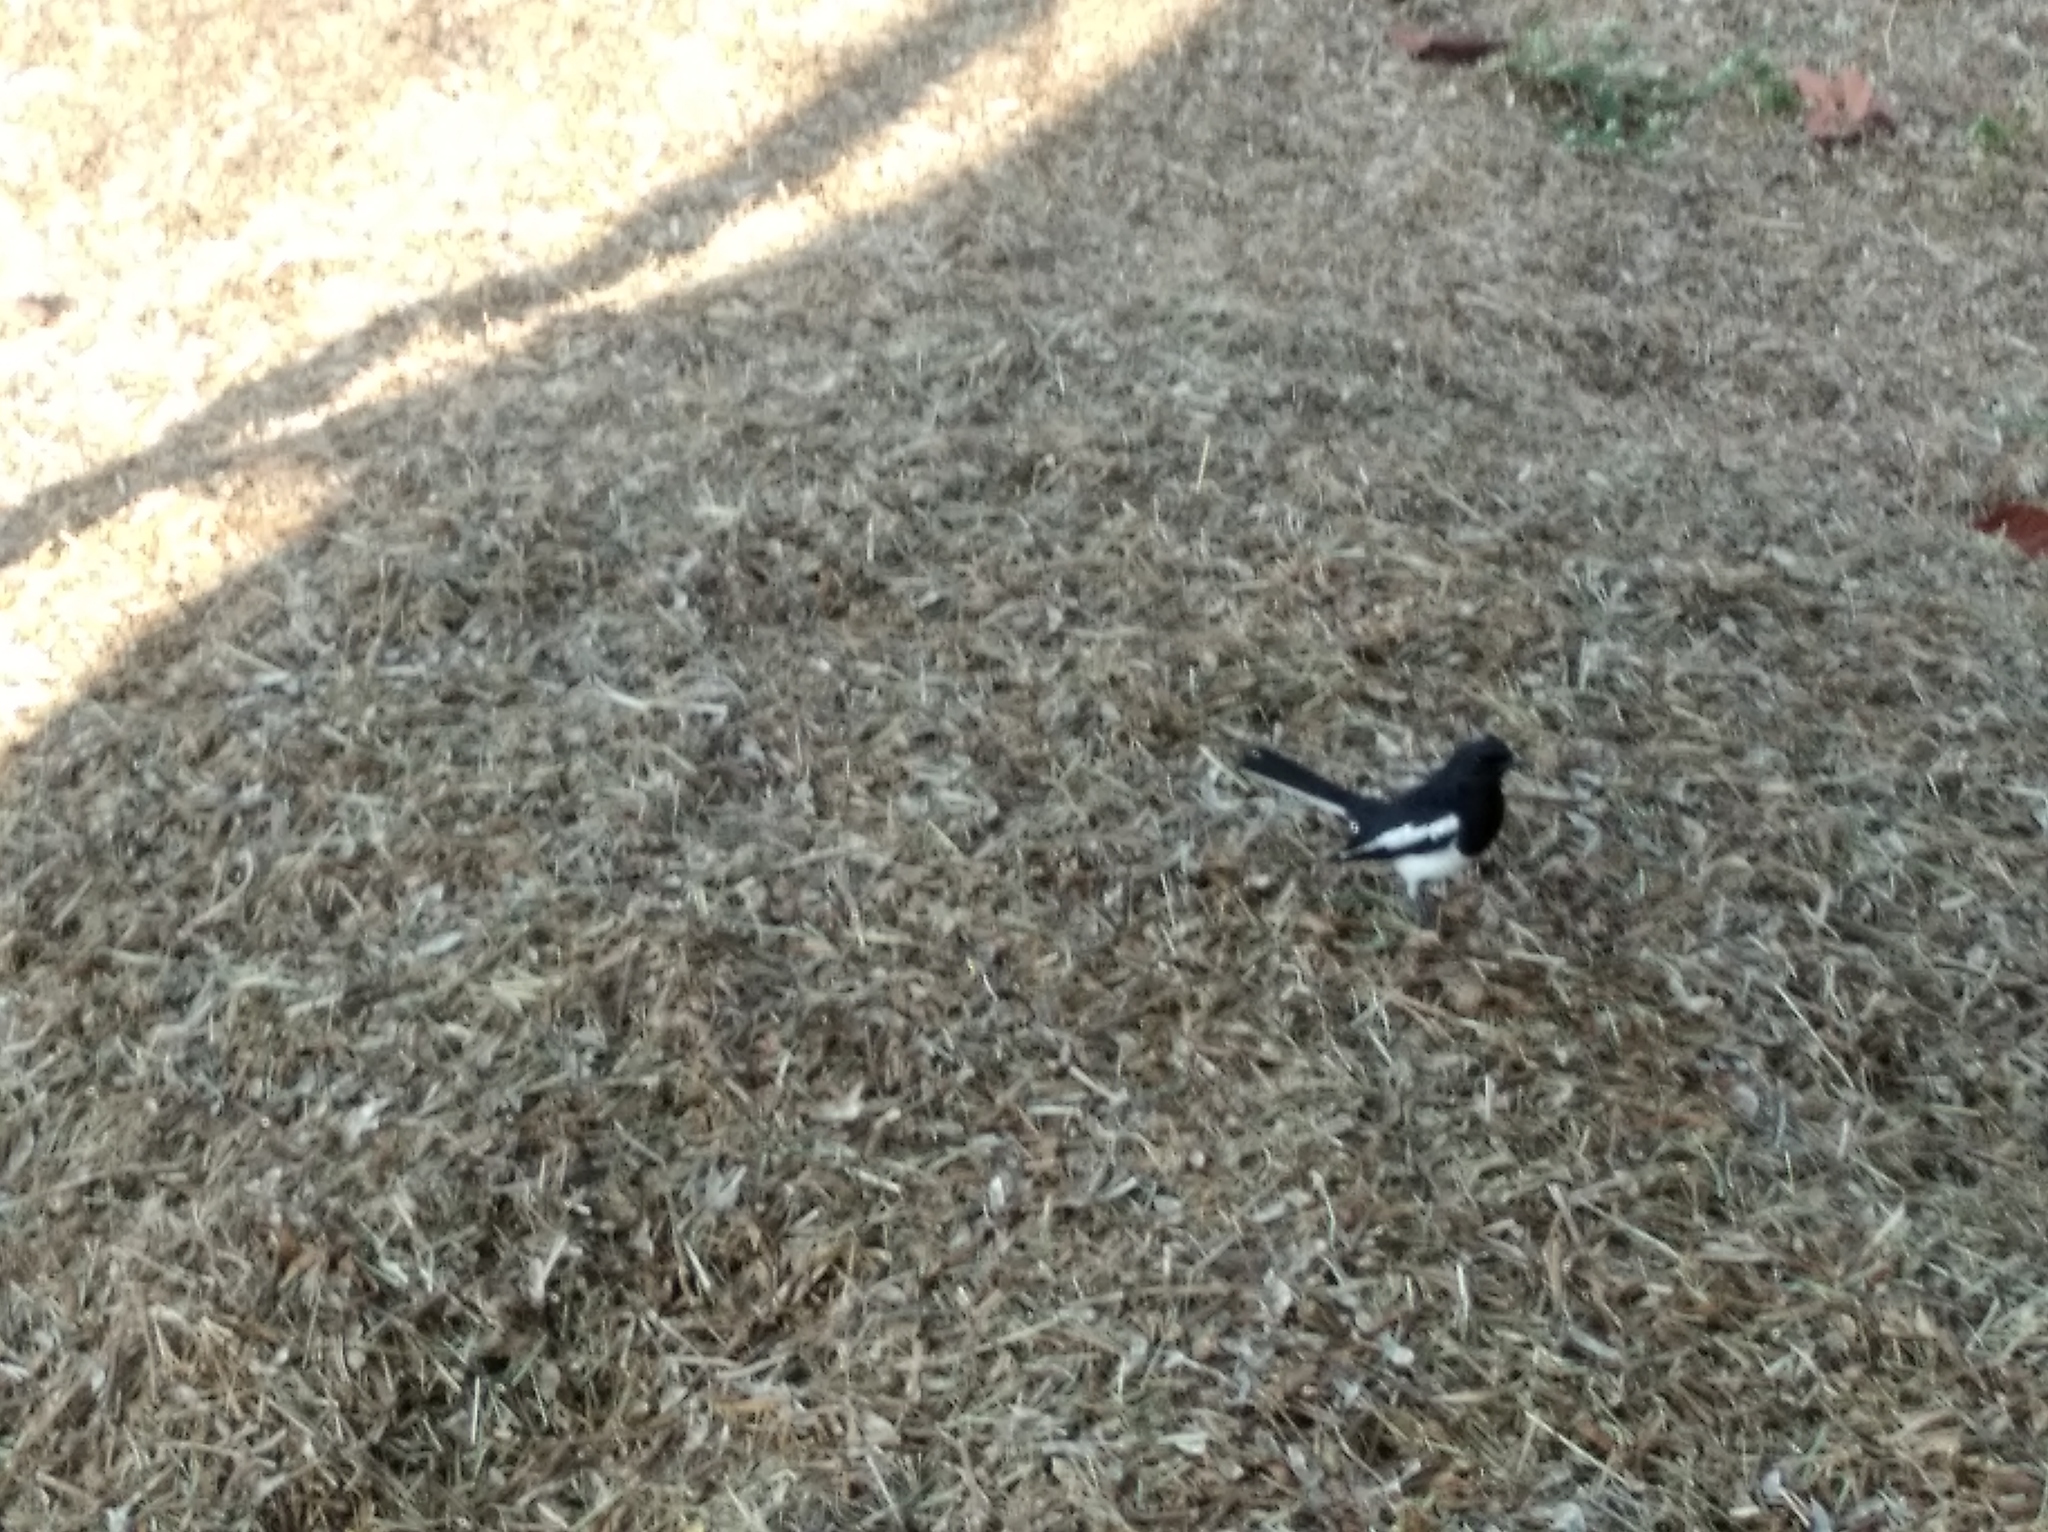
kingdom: Animalia
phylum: Chordata
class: Aves
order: Passeriformes
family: Muscicapidae
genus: Copsychus
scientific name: Copsychus saularis
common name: Oriental magpie-robin
